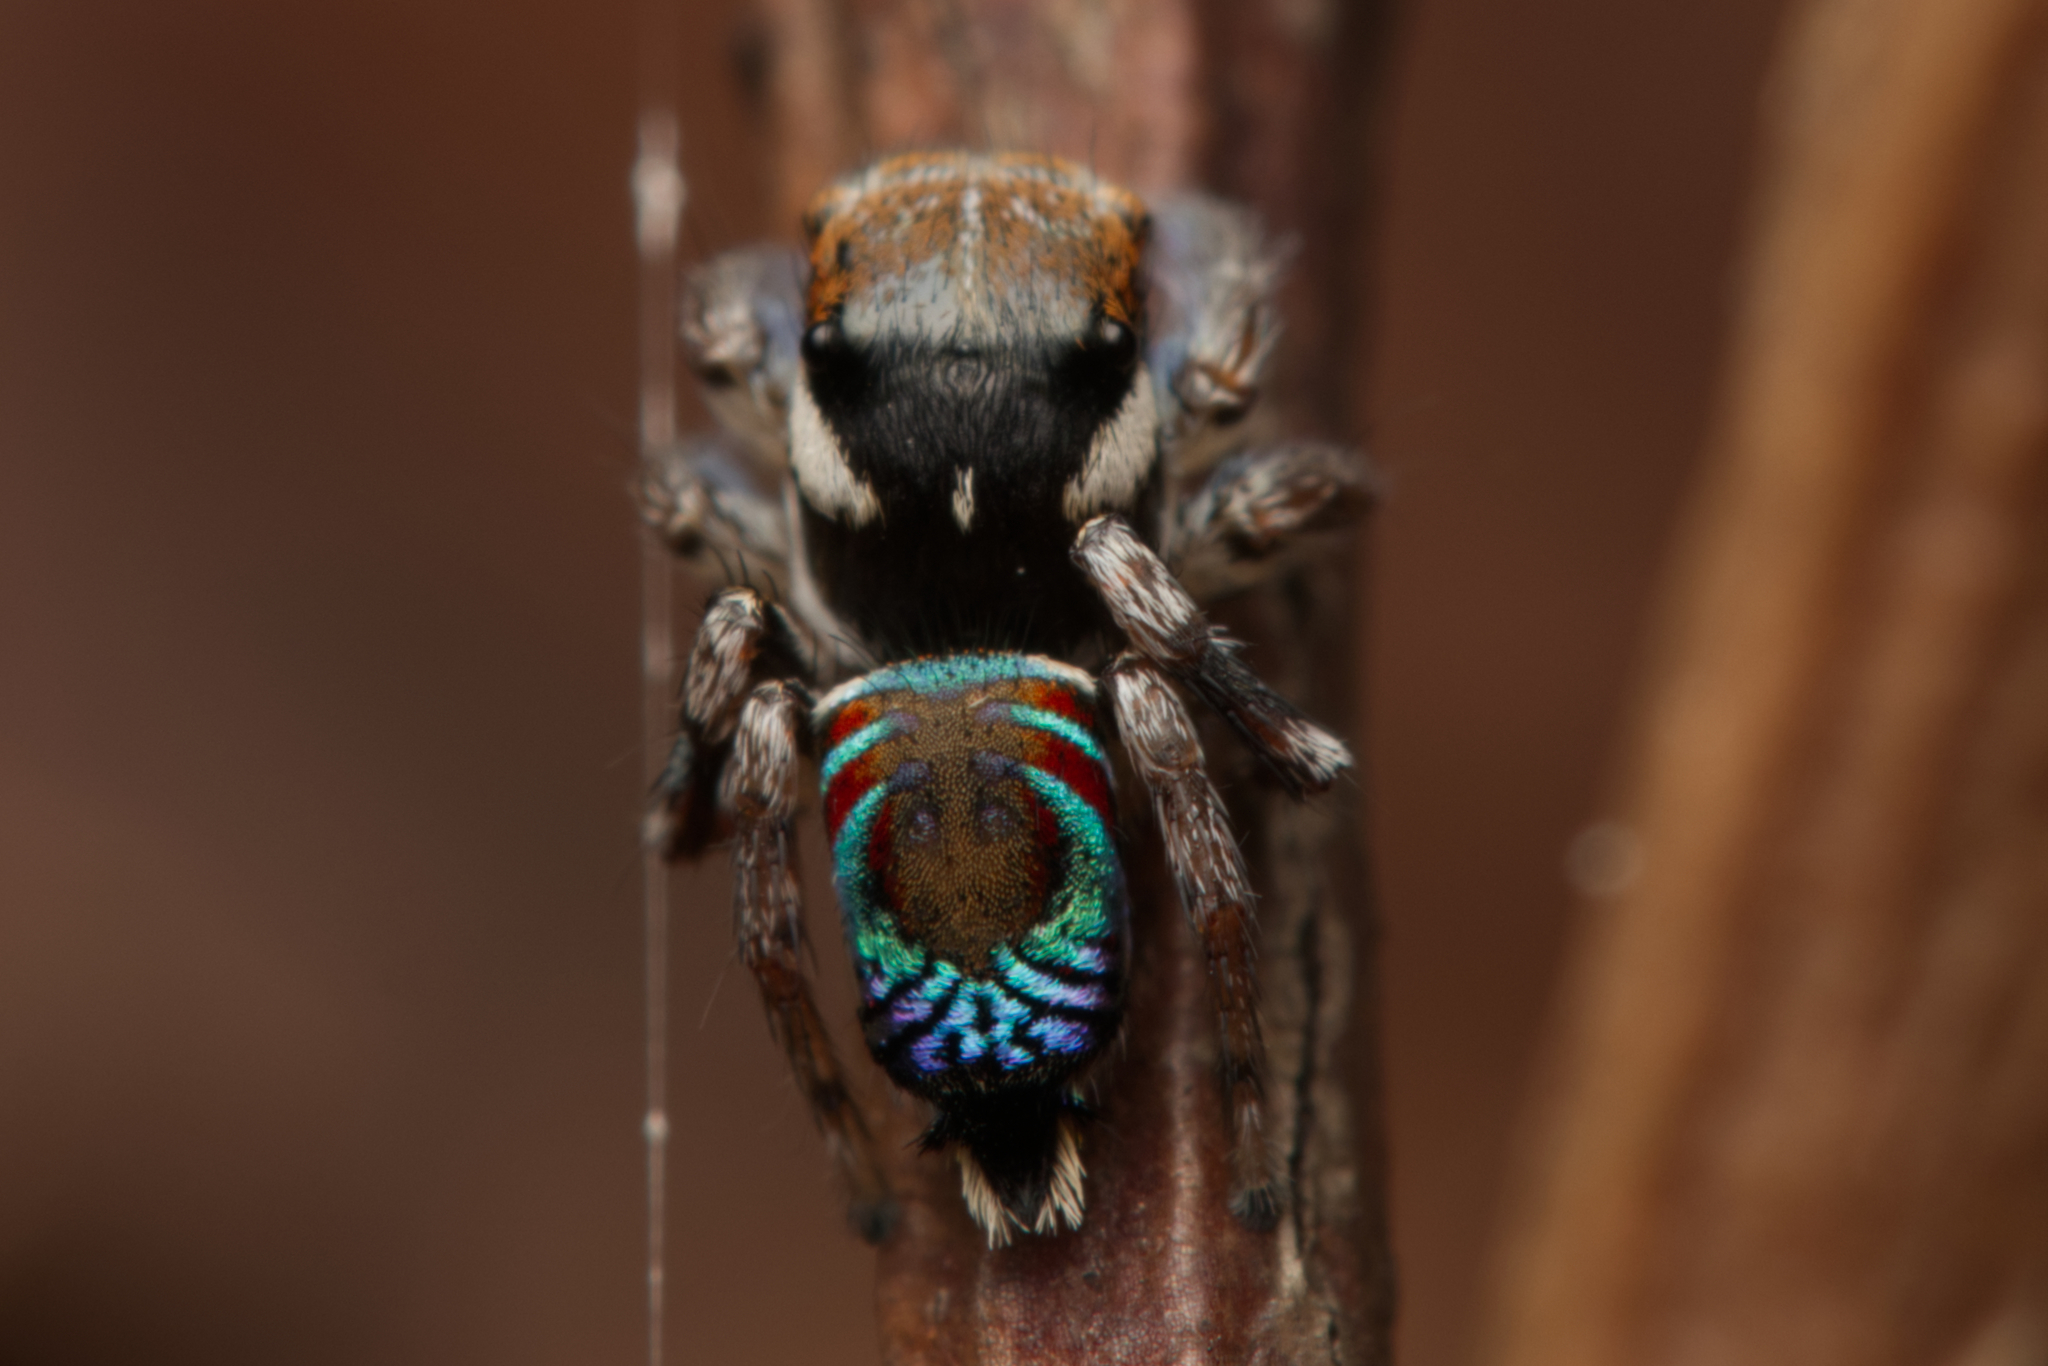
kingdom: Animalia
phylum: Arthropoda
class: Arachnida
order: Araneae
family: Salticidae
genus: Maratus
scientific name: Maratus ottoi
